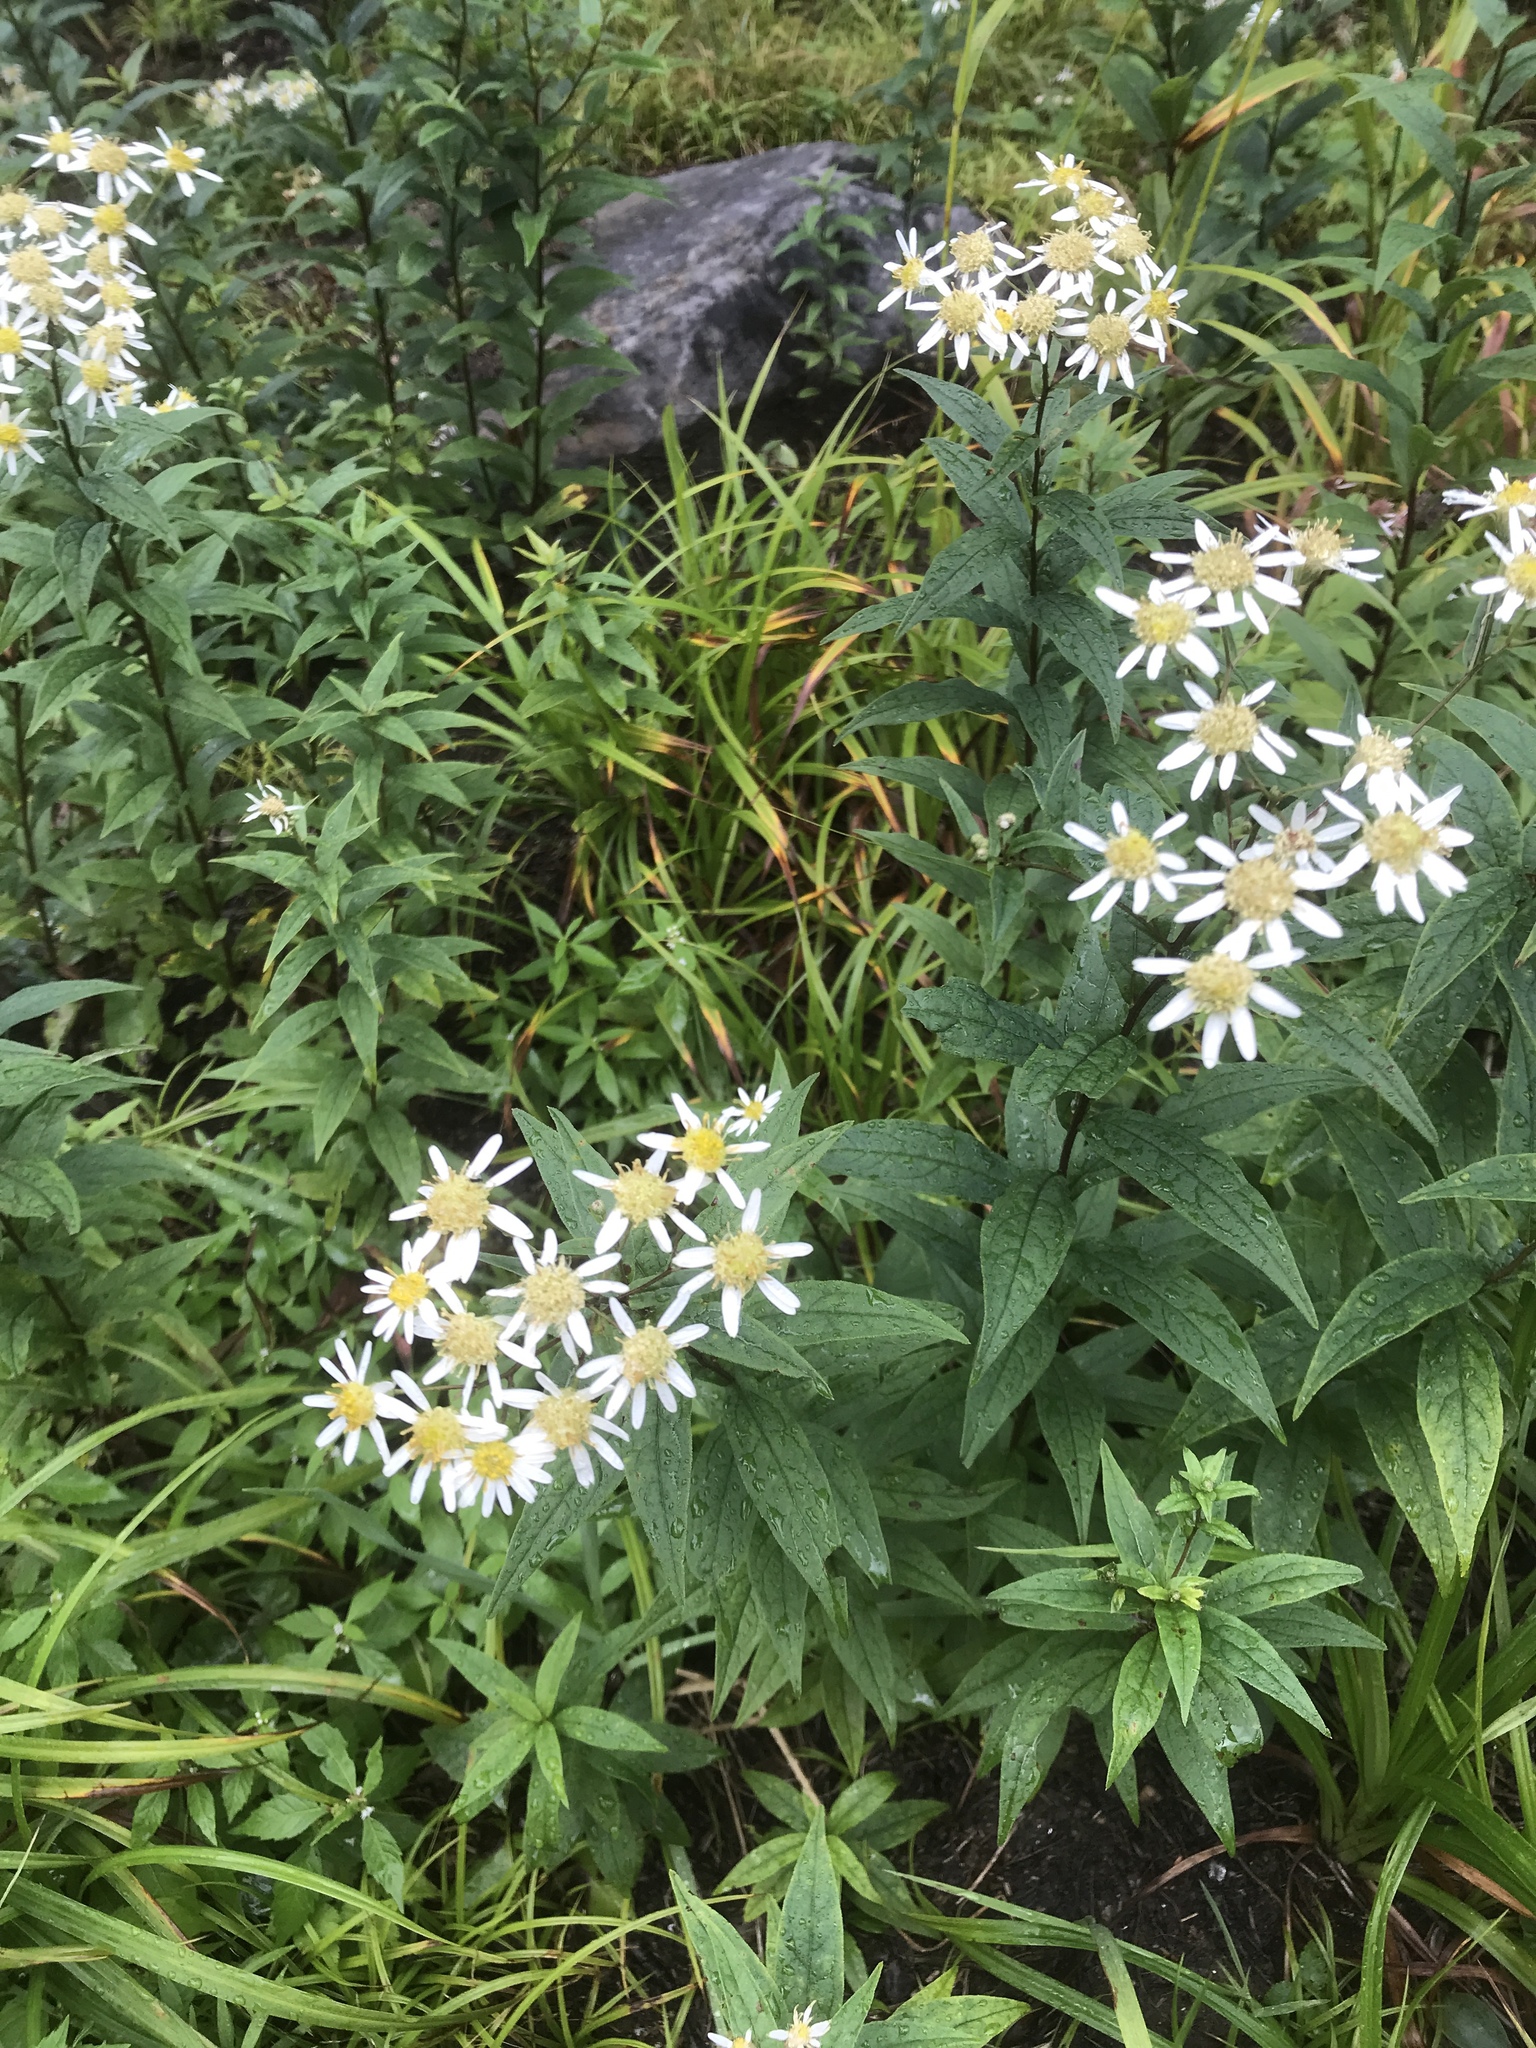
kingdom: Plantae
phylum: Tracheophyta
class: Magnoliopsida
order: Asterales
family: Asteraceae
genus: Doellingeria
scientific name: Doellingeria umbellata
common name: Flat-top white aster
